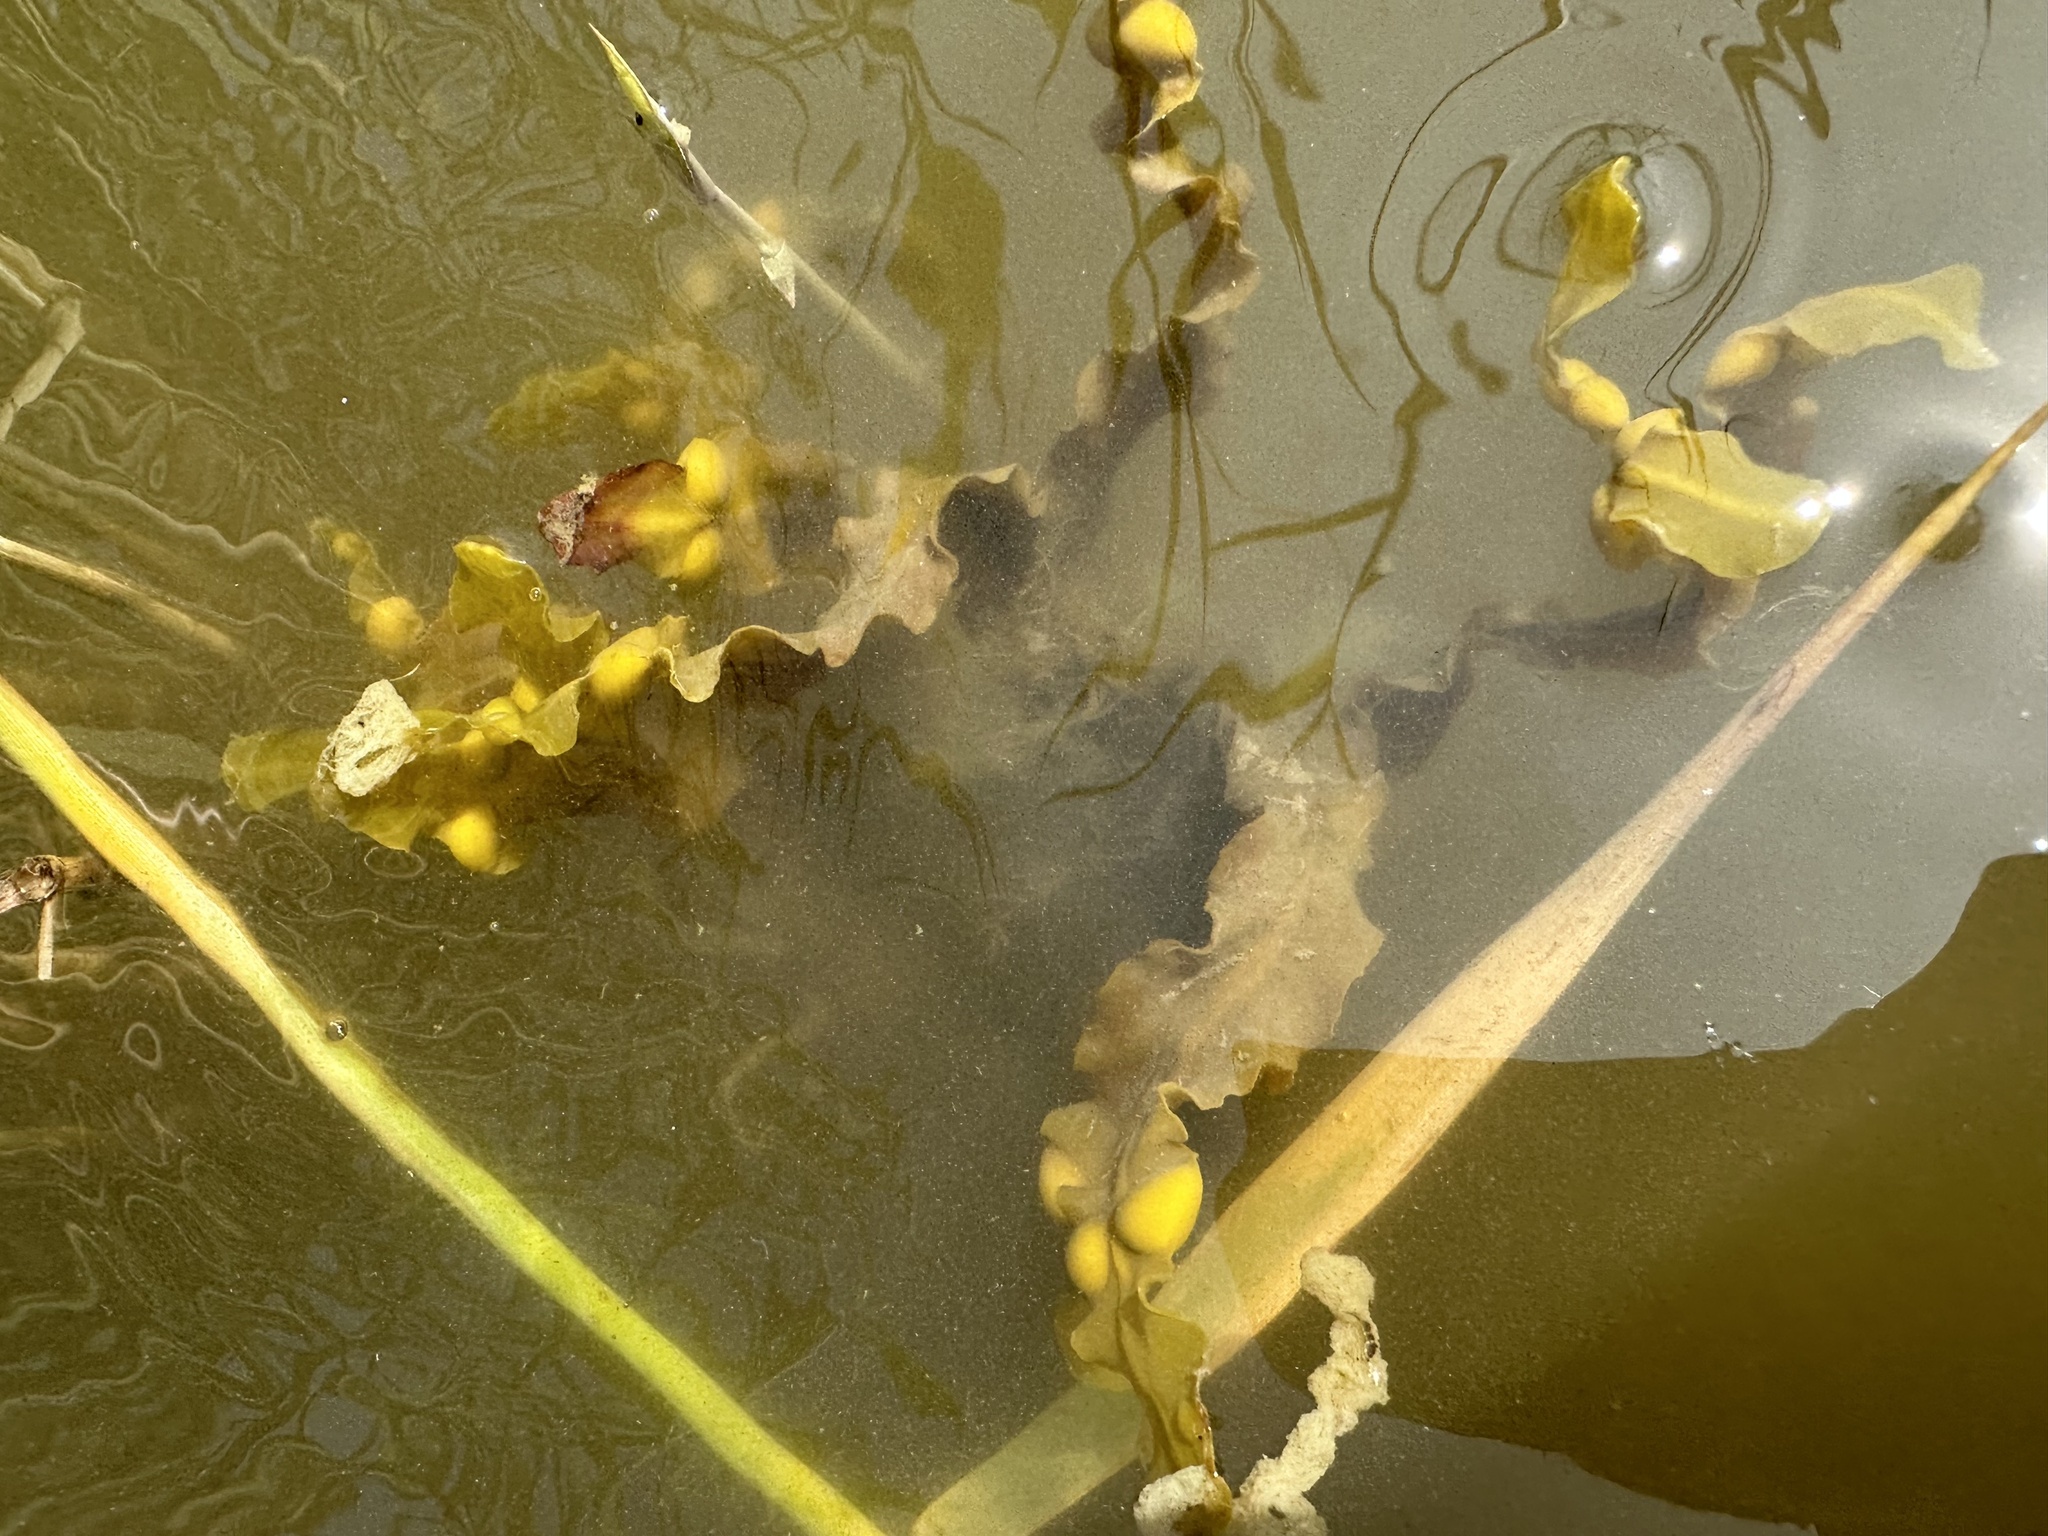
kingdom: Chromista
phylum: Ochrophyta
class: Phaeophyceae
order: Fucales
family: Fucaceae
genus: Fucus
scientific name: Fucus vesiculosus
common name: Bladder wrack
